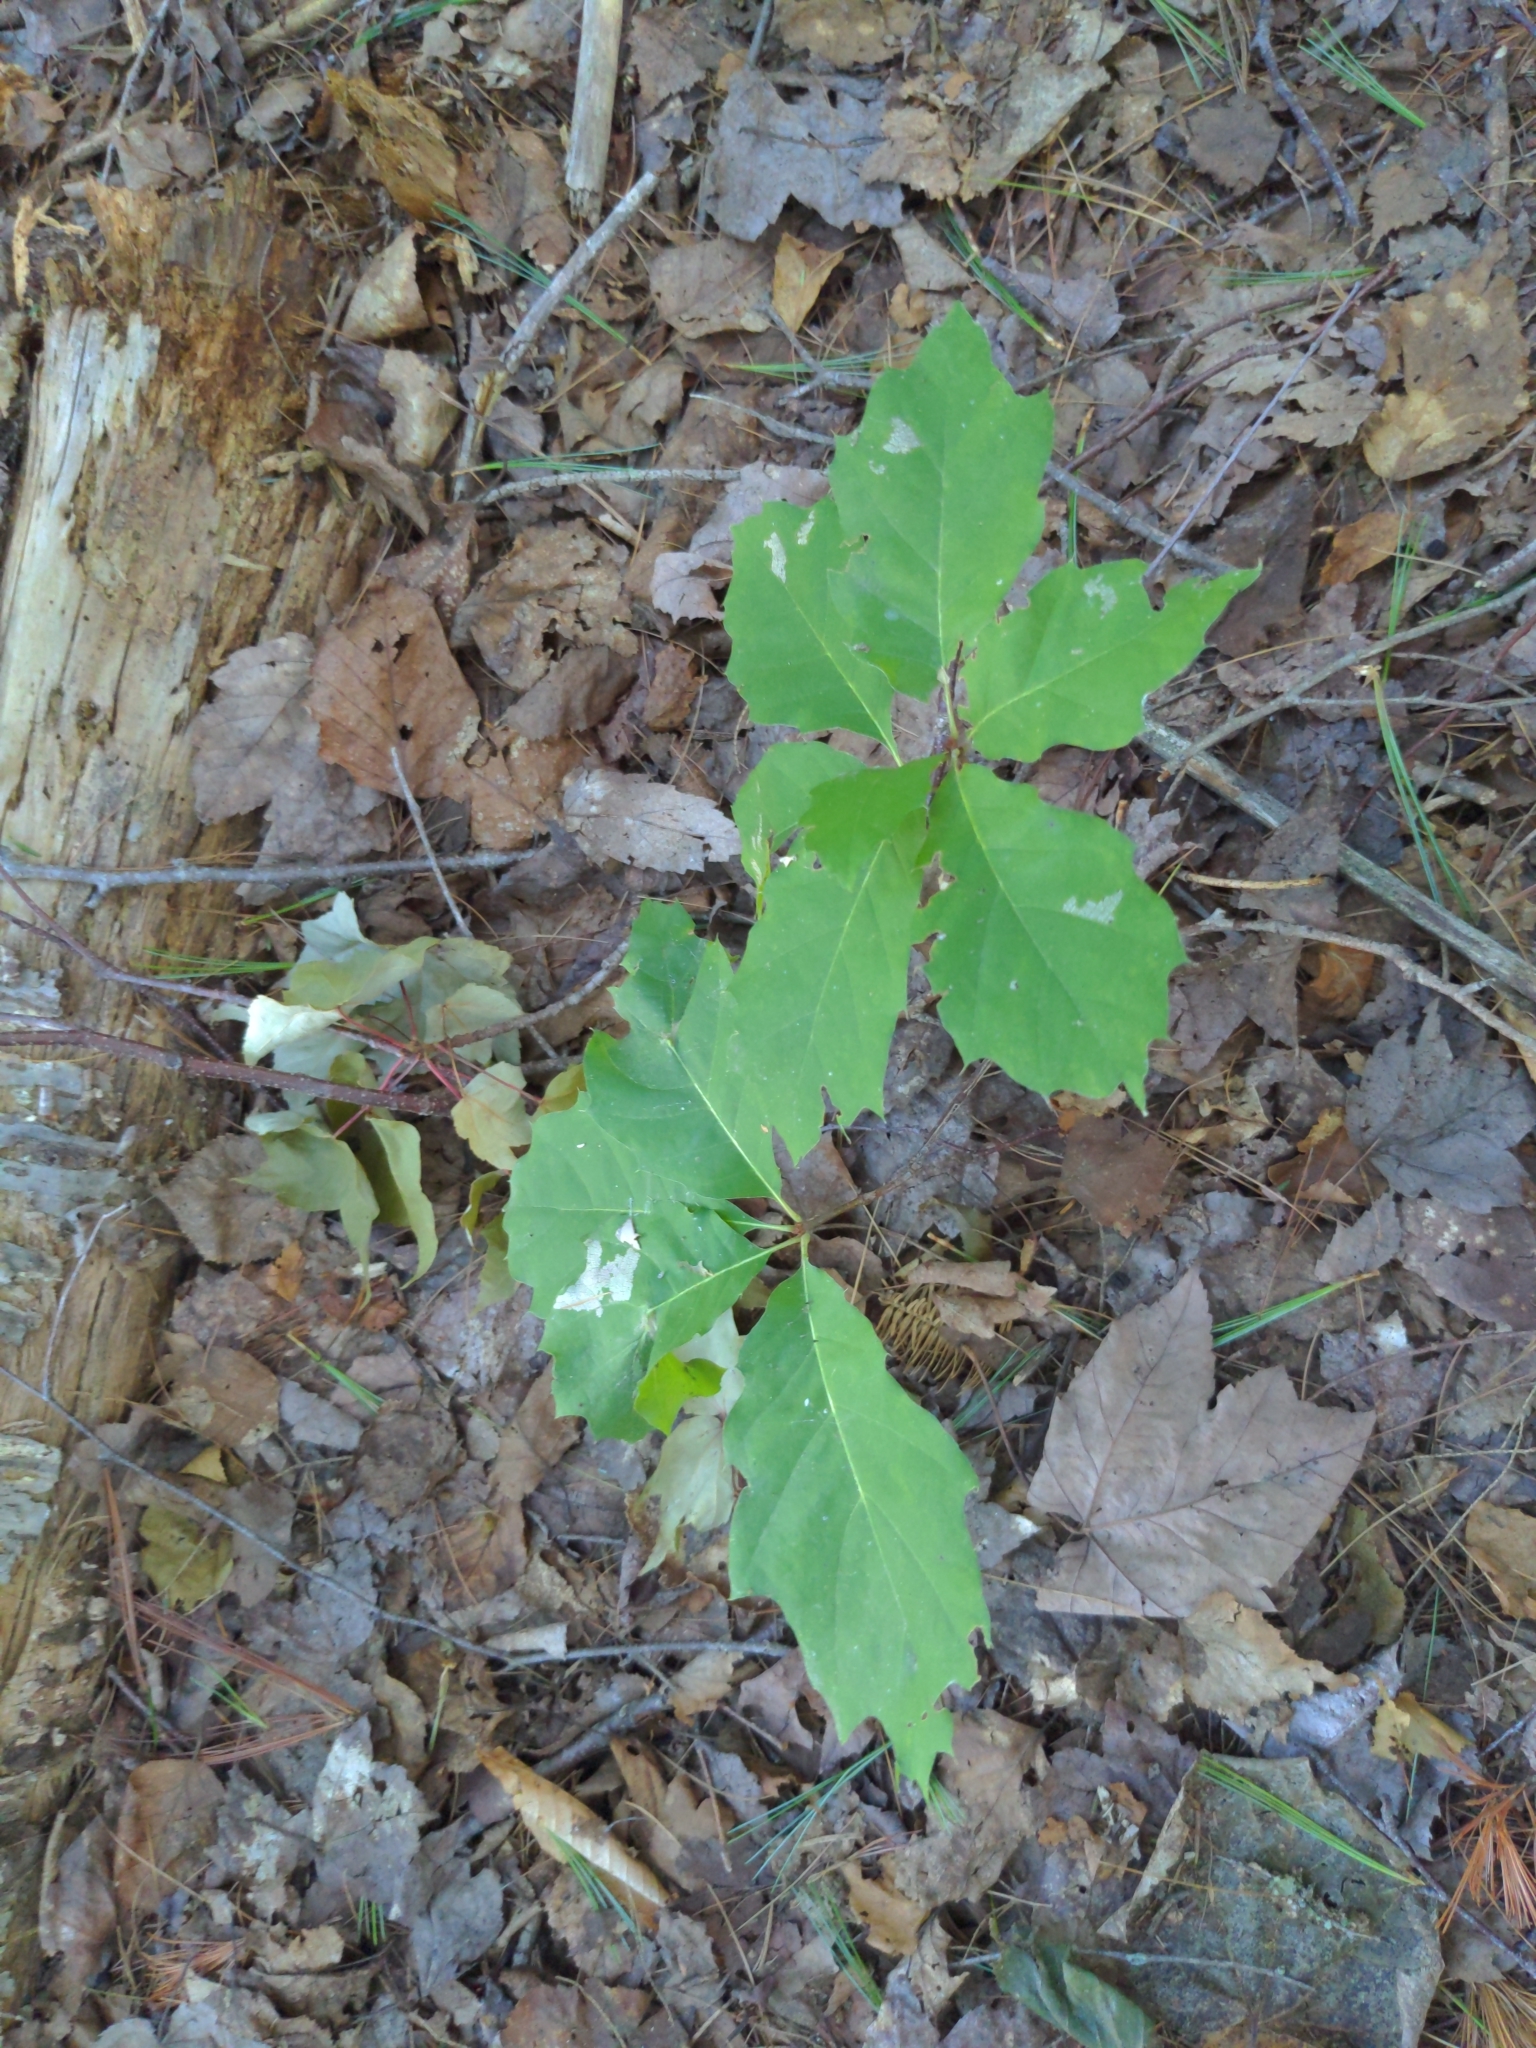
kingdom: Plantae
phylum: Tracheophyta
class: Magnoliopsida
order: Fagales
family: Fagaceae
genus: Quercus
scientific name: Quercus rubra
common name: Red oak
